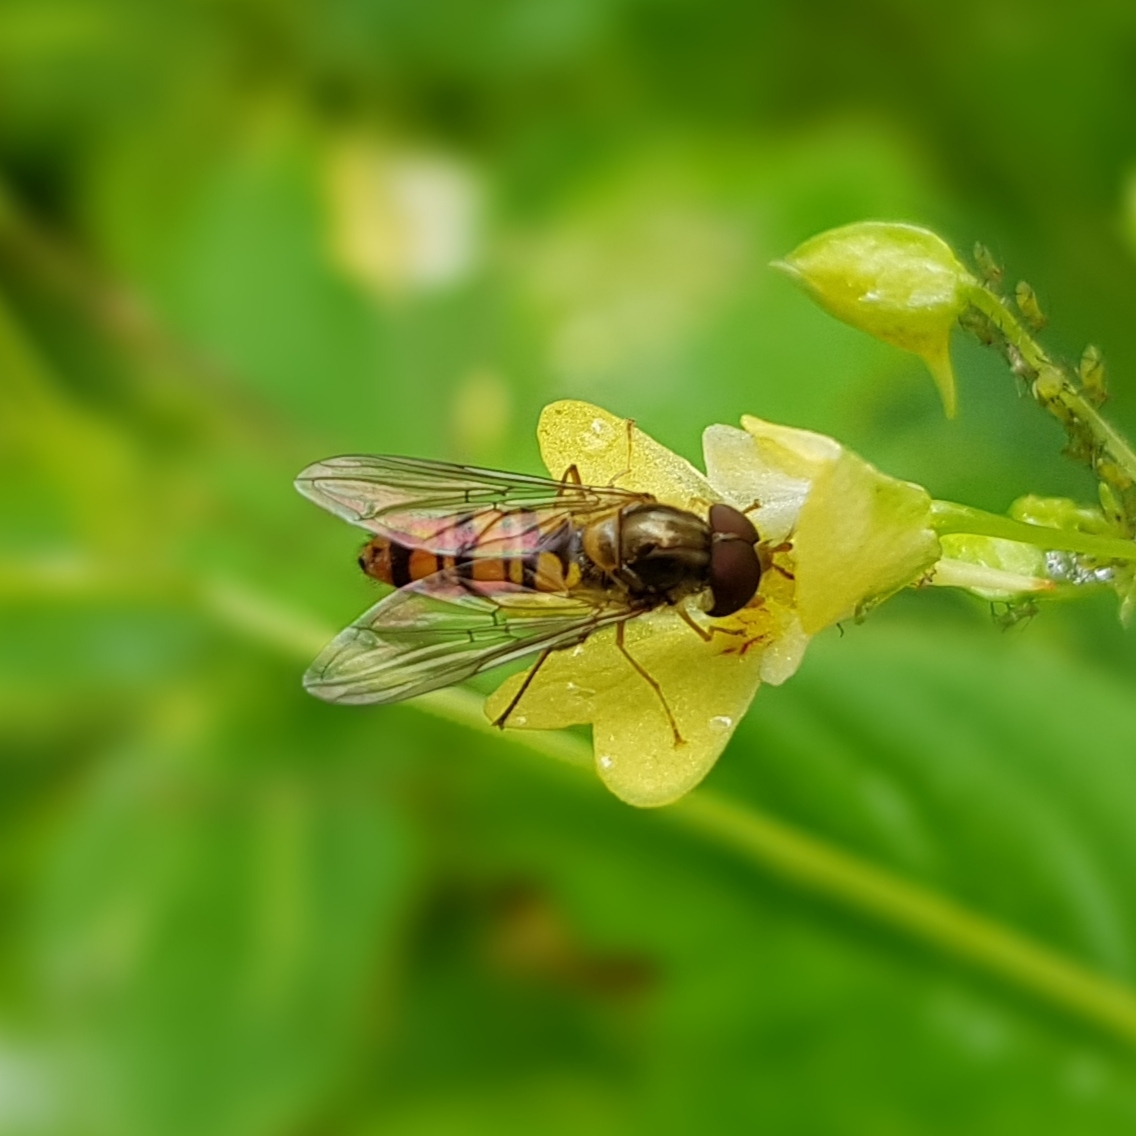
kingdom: Animalia
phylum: Arthropoda
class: Insecta
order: Diptera
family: Syrphidae
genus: Episyrphus
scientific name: Episyrphus balteatus
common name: Marmalade hoverfly
